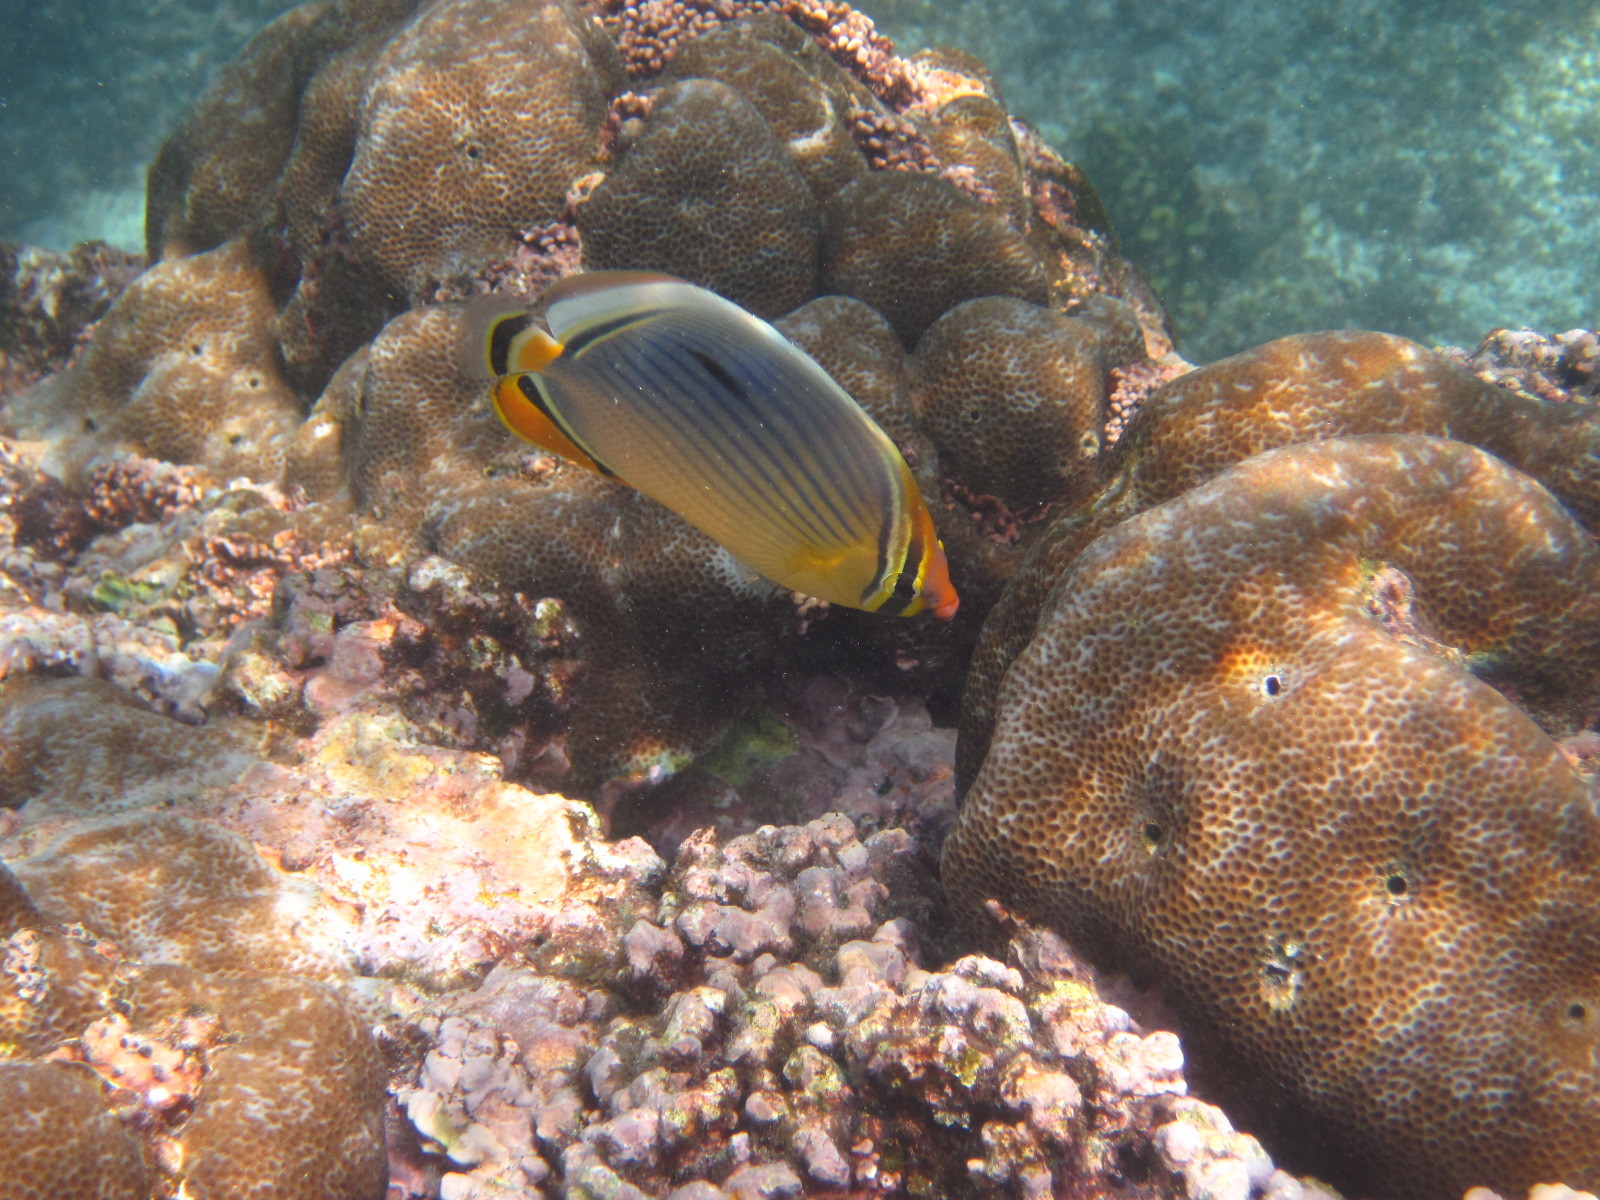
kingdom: Animalia
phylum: Chordata
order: Perciformes
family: Chaetodontidae
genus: Chaetodon
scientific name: Chaetodon trifasciatus
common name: Redfin butterflyfish
